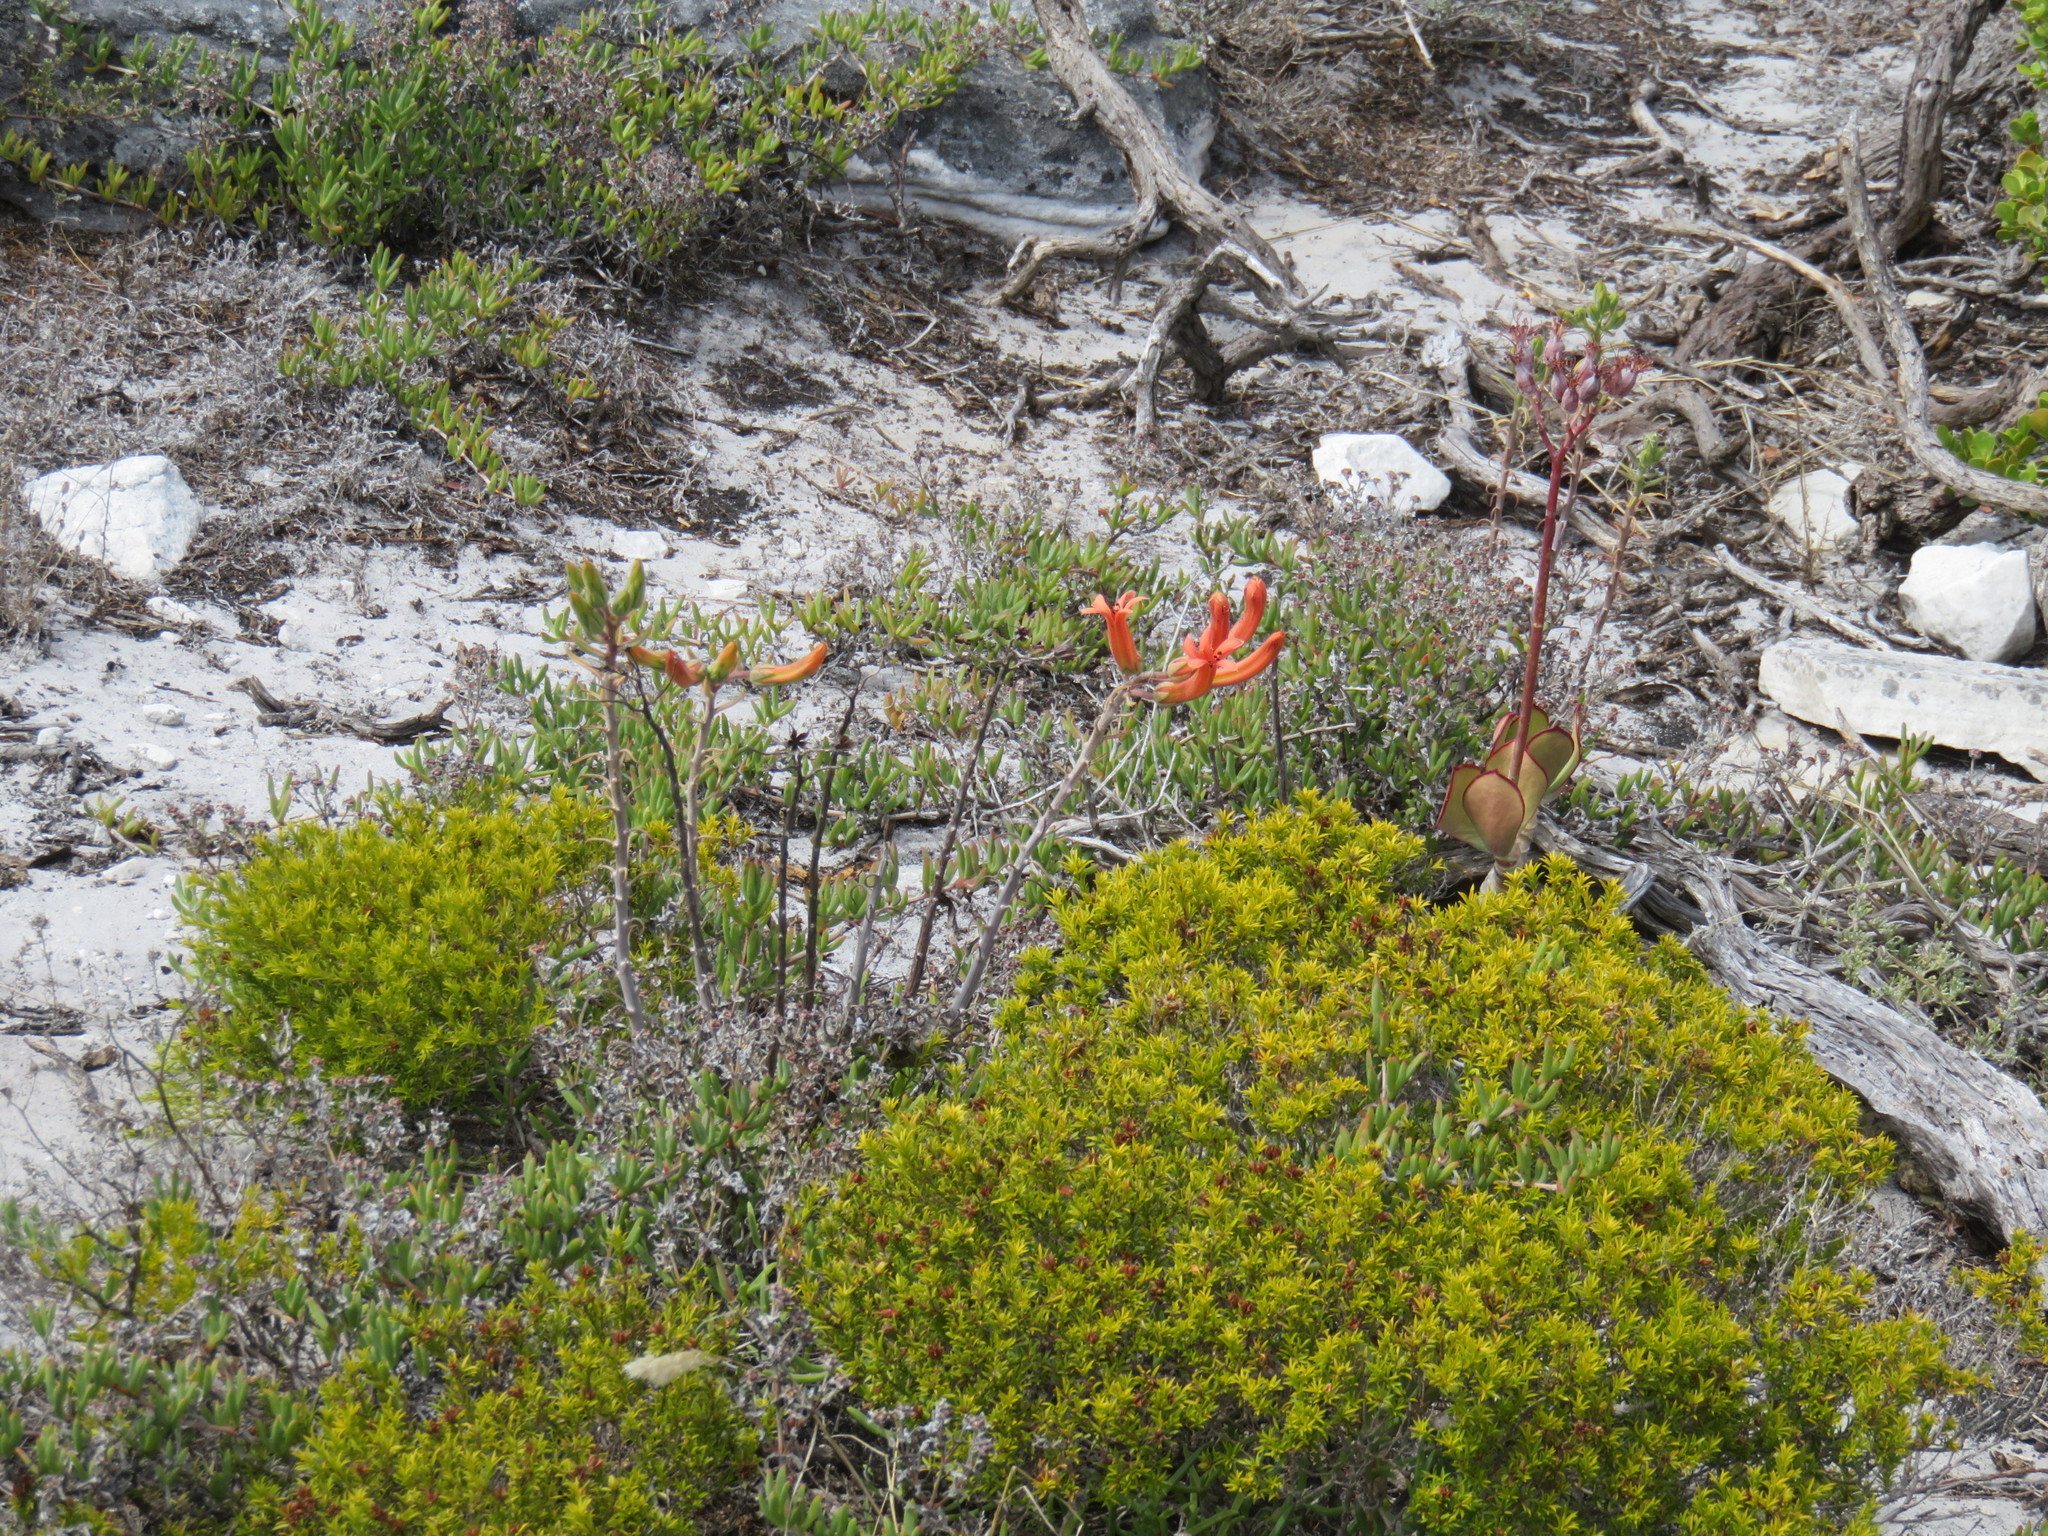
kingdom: Plantae
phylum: Tracheophyta
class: Magnoliopsida
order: Saxifragales
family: Crassulaceae
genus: Tylecodon
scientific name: Tylecodon grandiflorus
